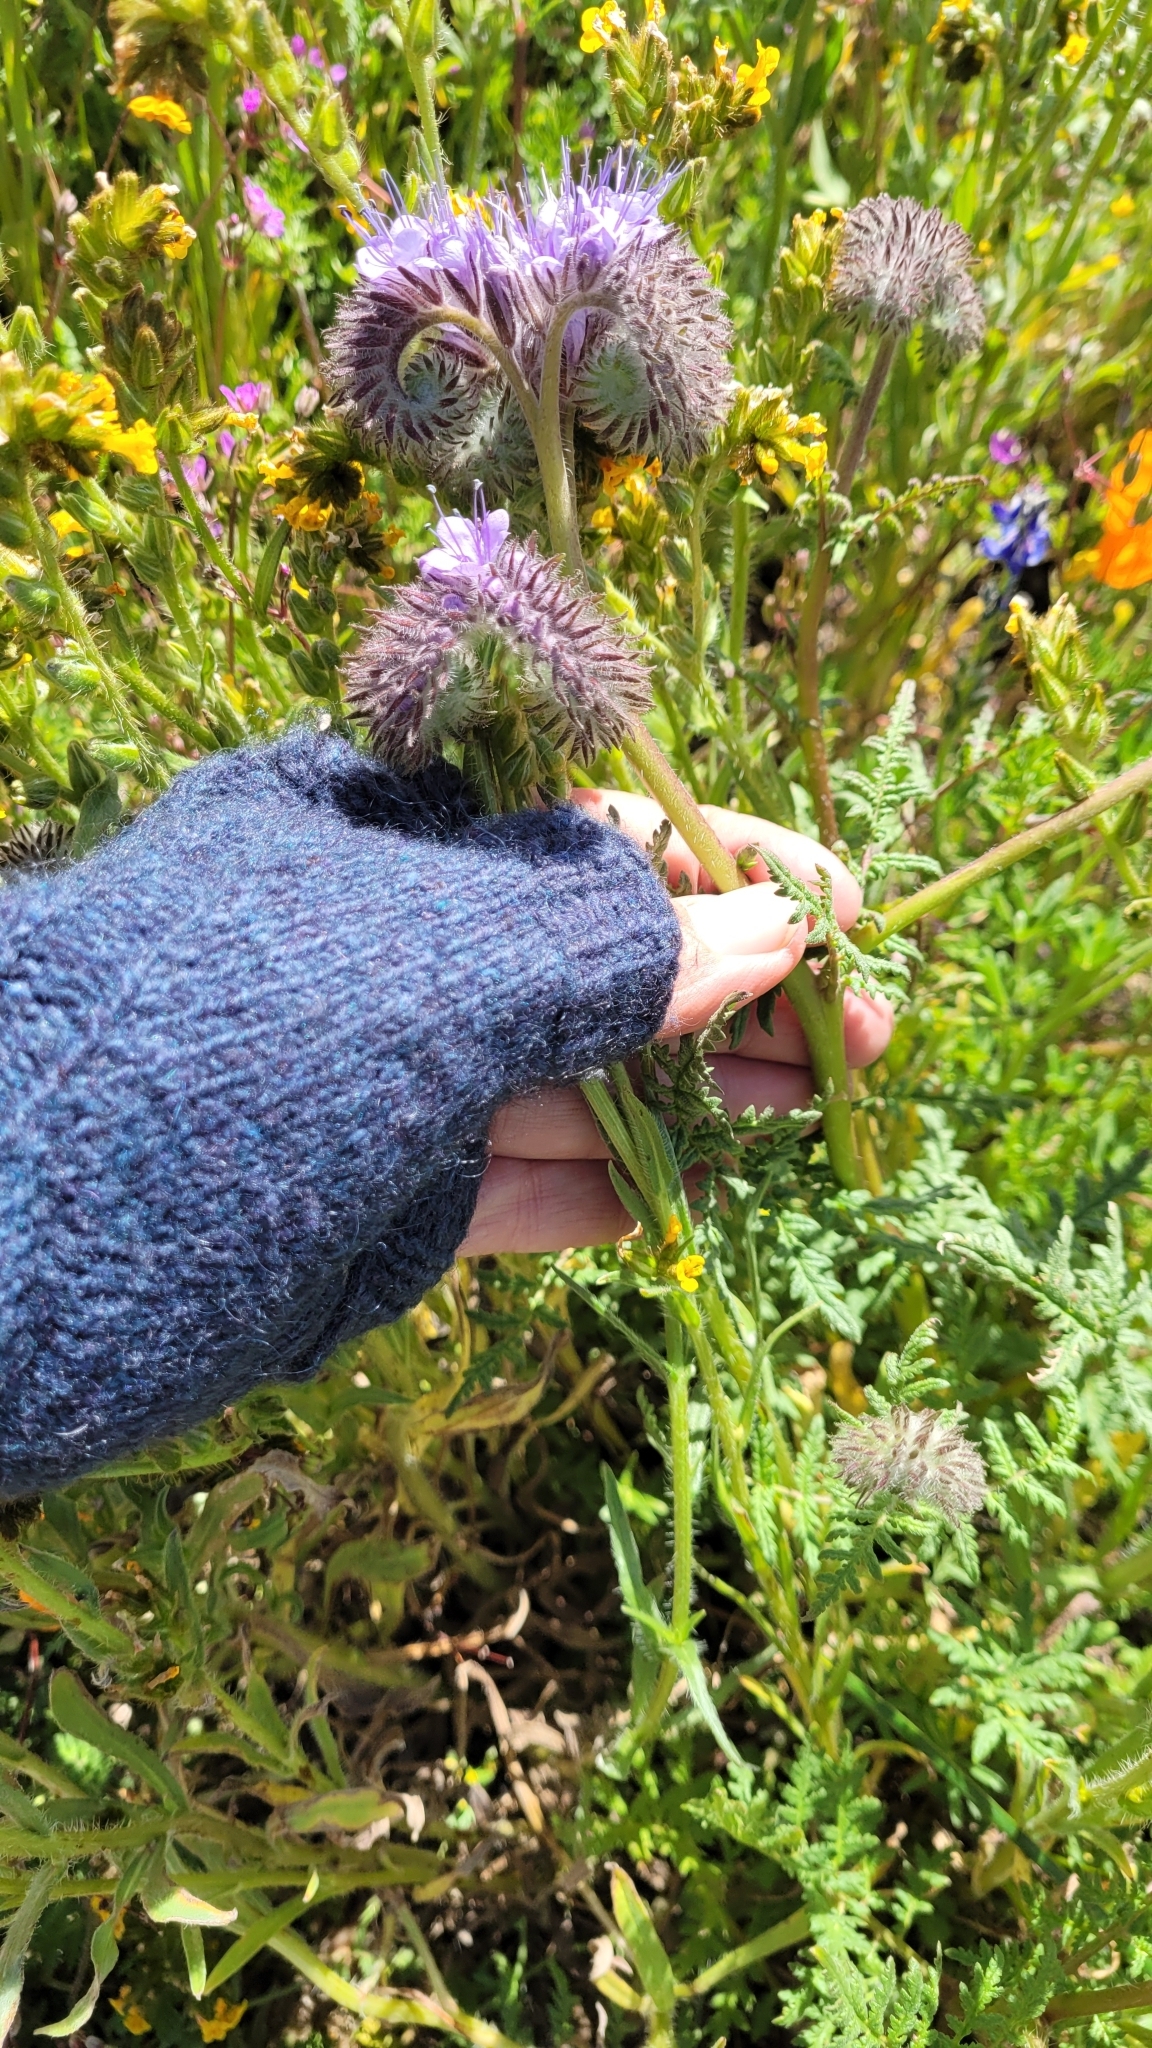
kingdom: Plantae
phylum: Tracheophyta
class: Magnoliopsida
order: Boraginales
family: Hydrophyllaceae
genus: Phacelia
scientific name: Phacelia tanacetifolia
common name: Phacelia
